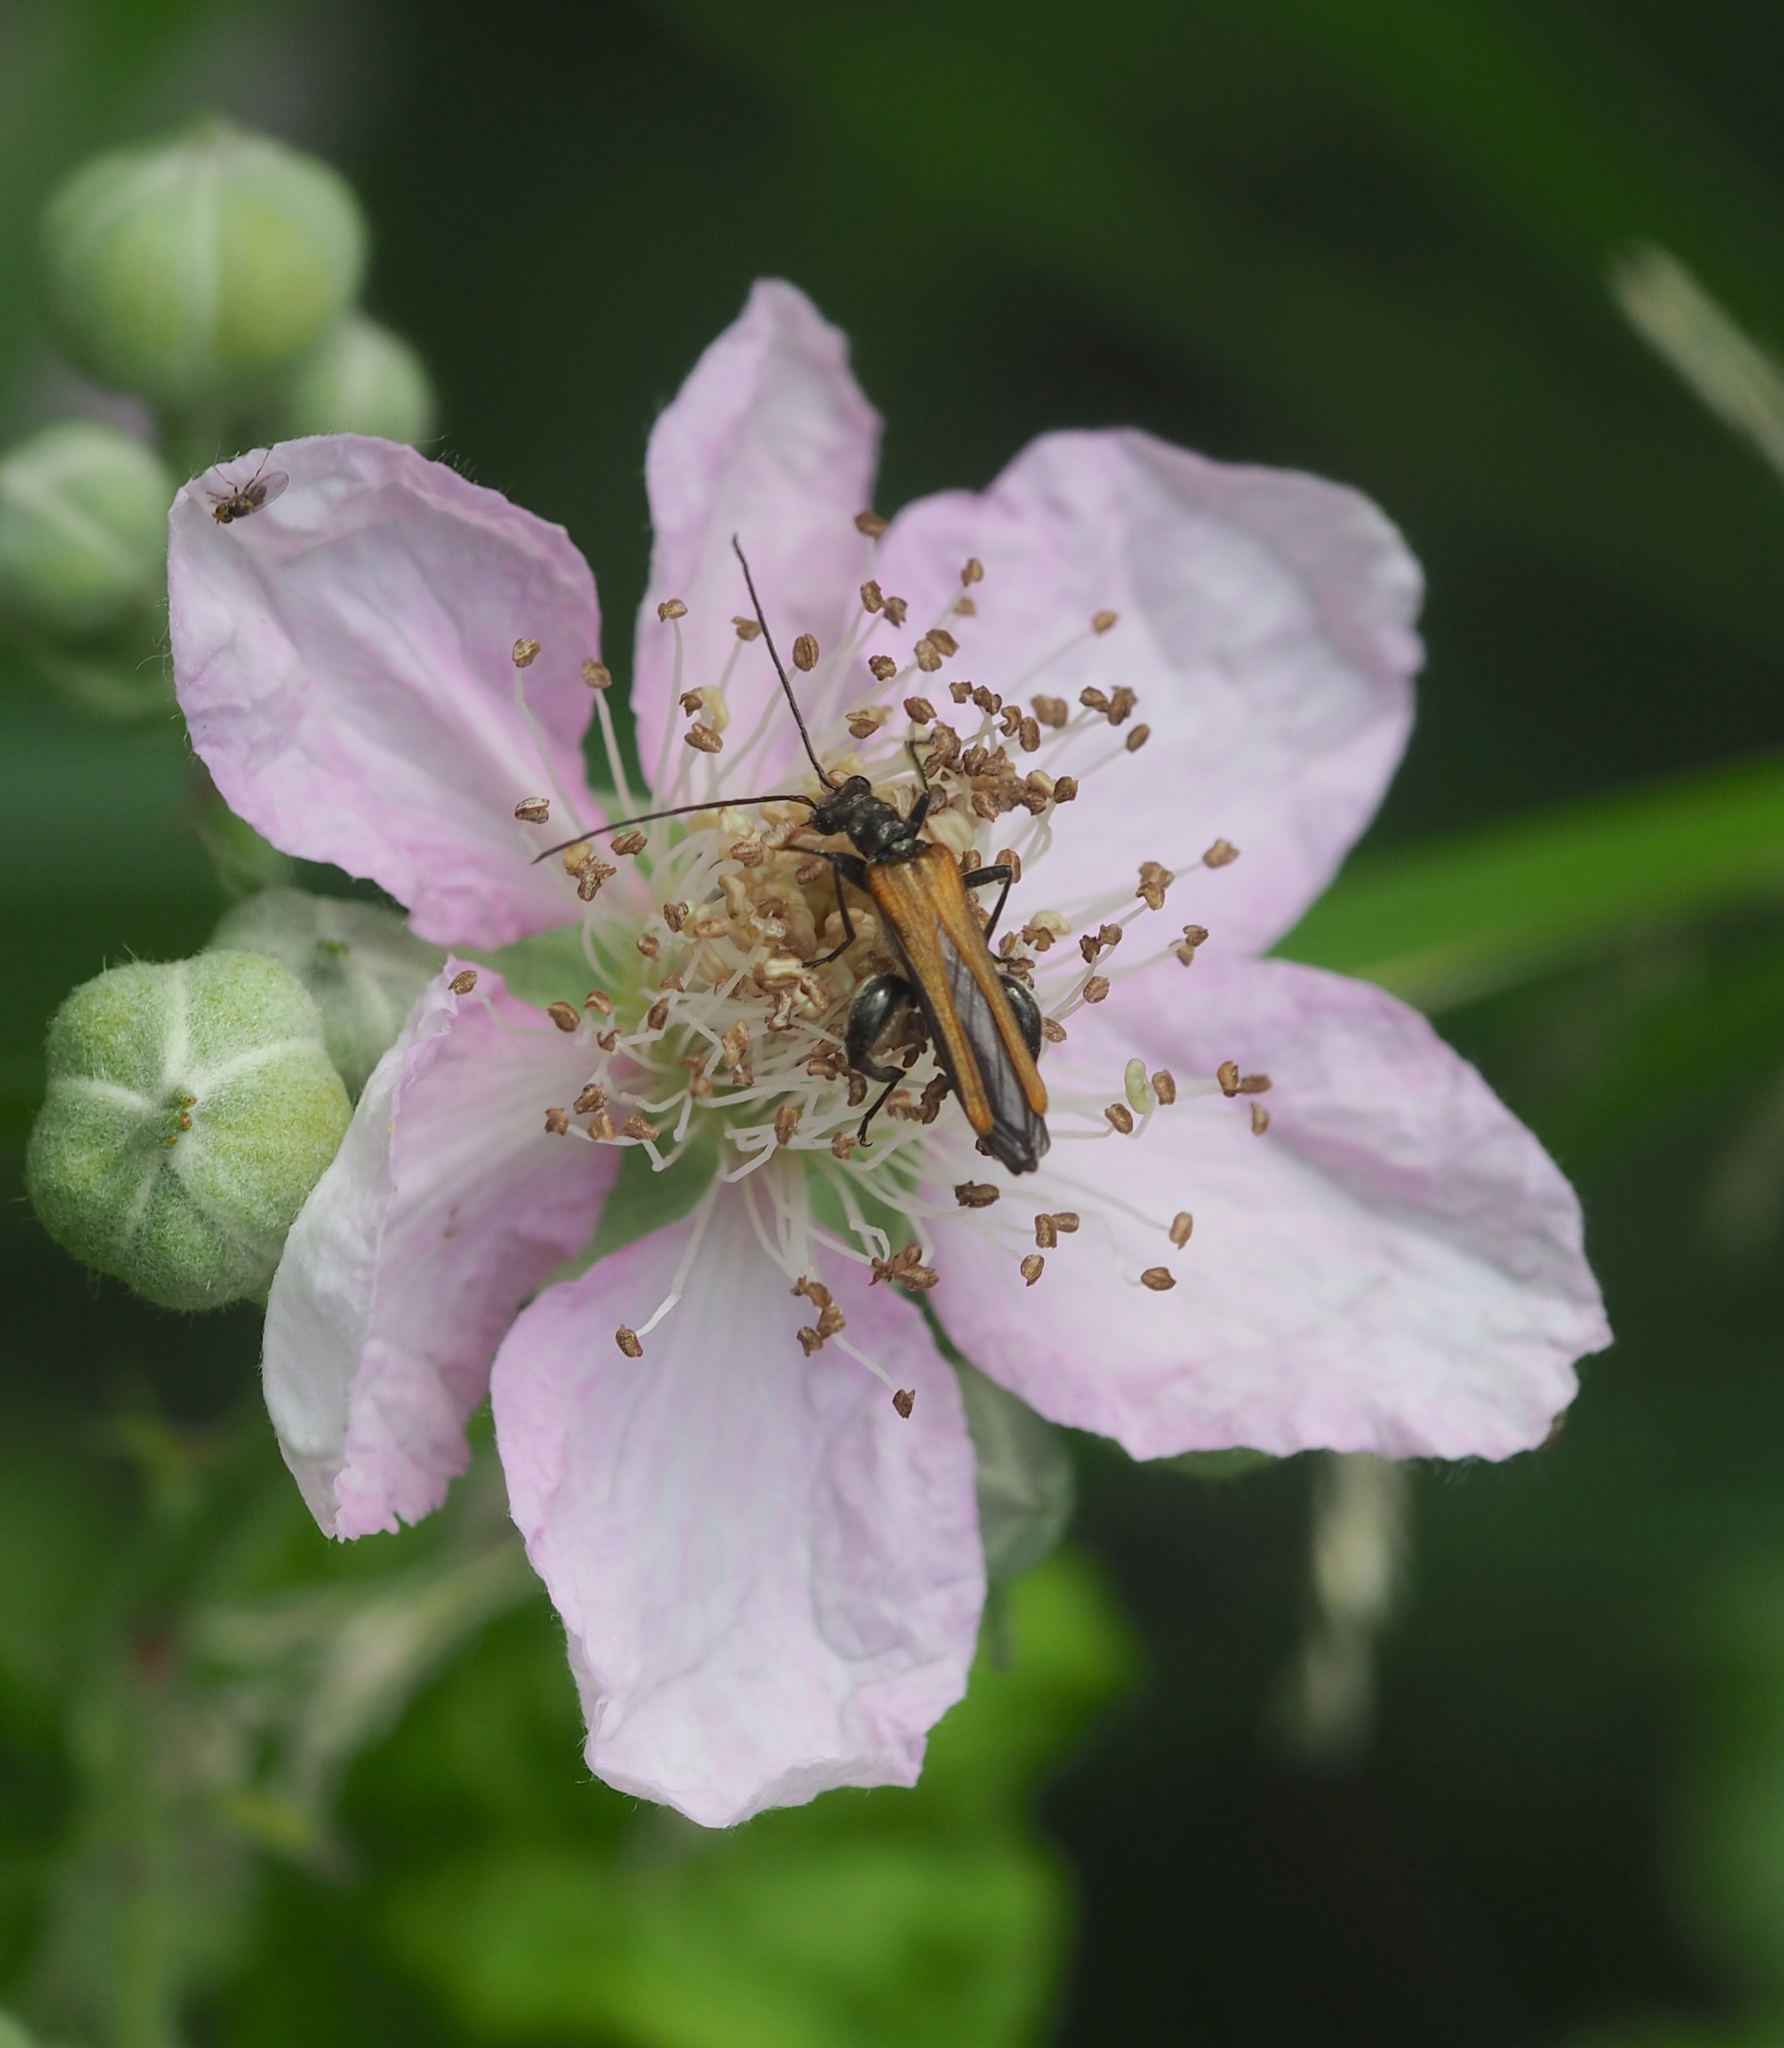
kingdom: Animalia
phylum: Arthropoda
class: Insecta
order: Coleoptera
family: Oedemeridae
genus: Oedemera
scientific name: Oedemera femorata
